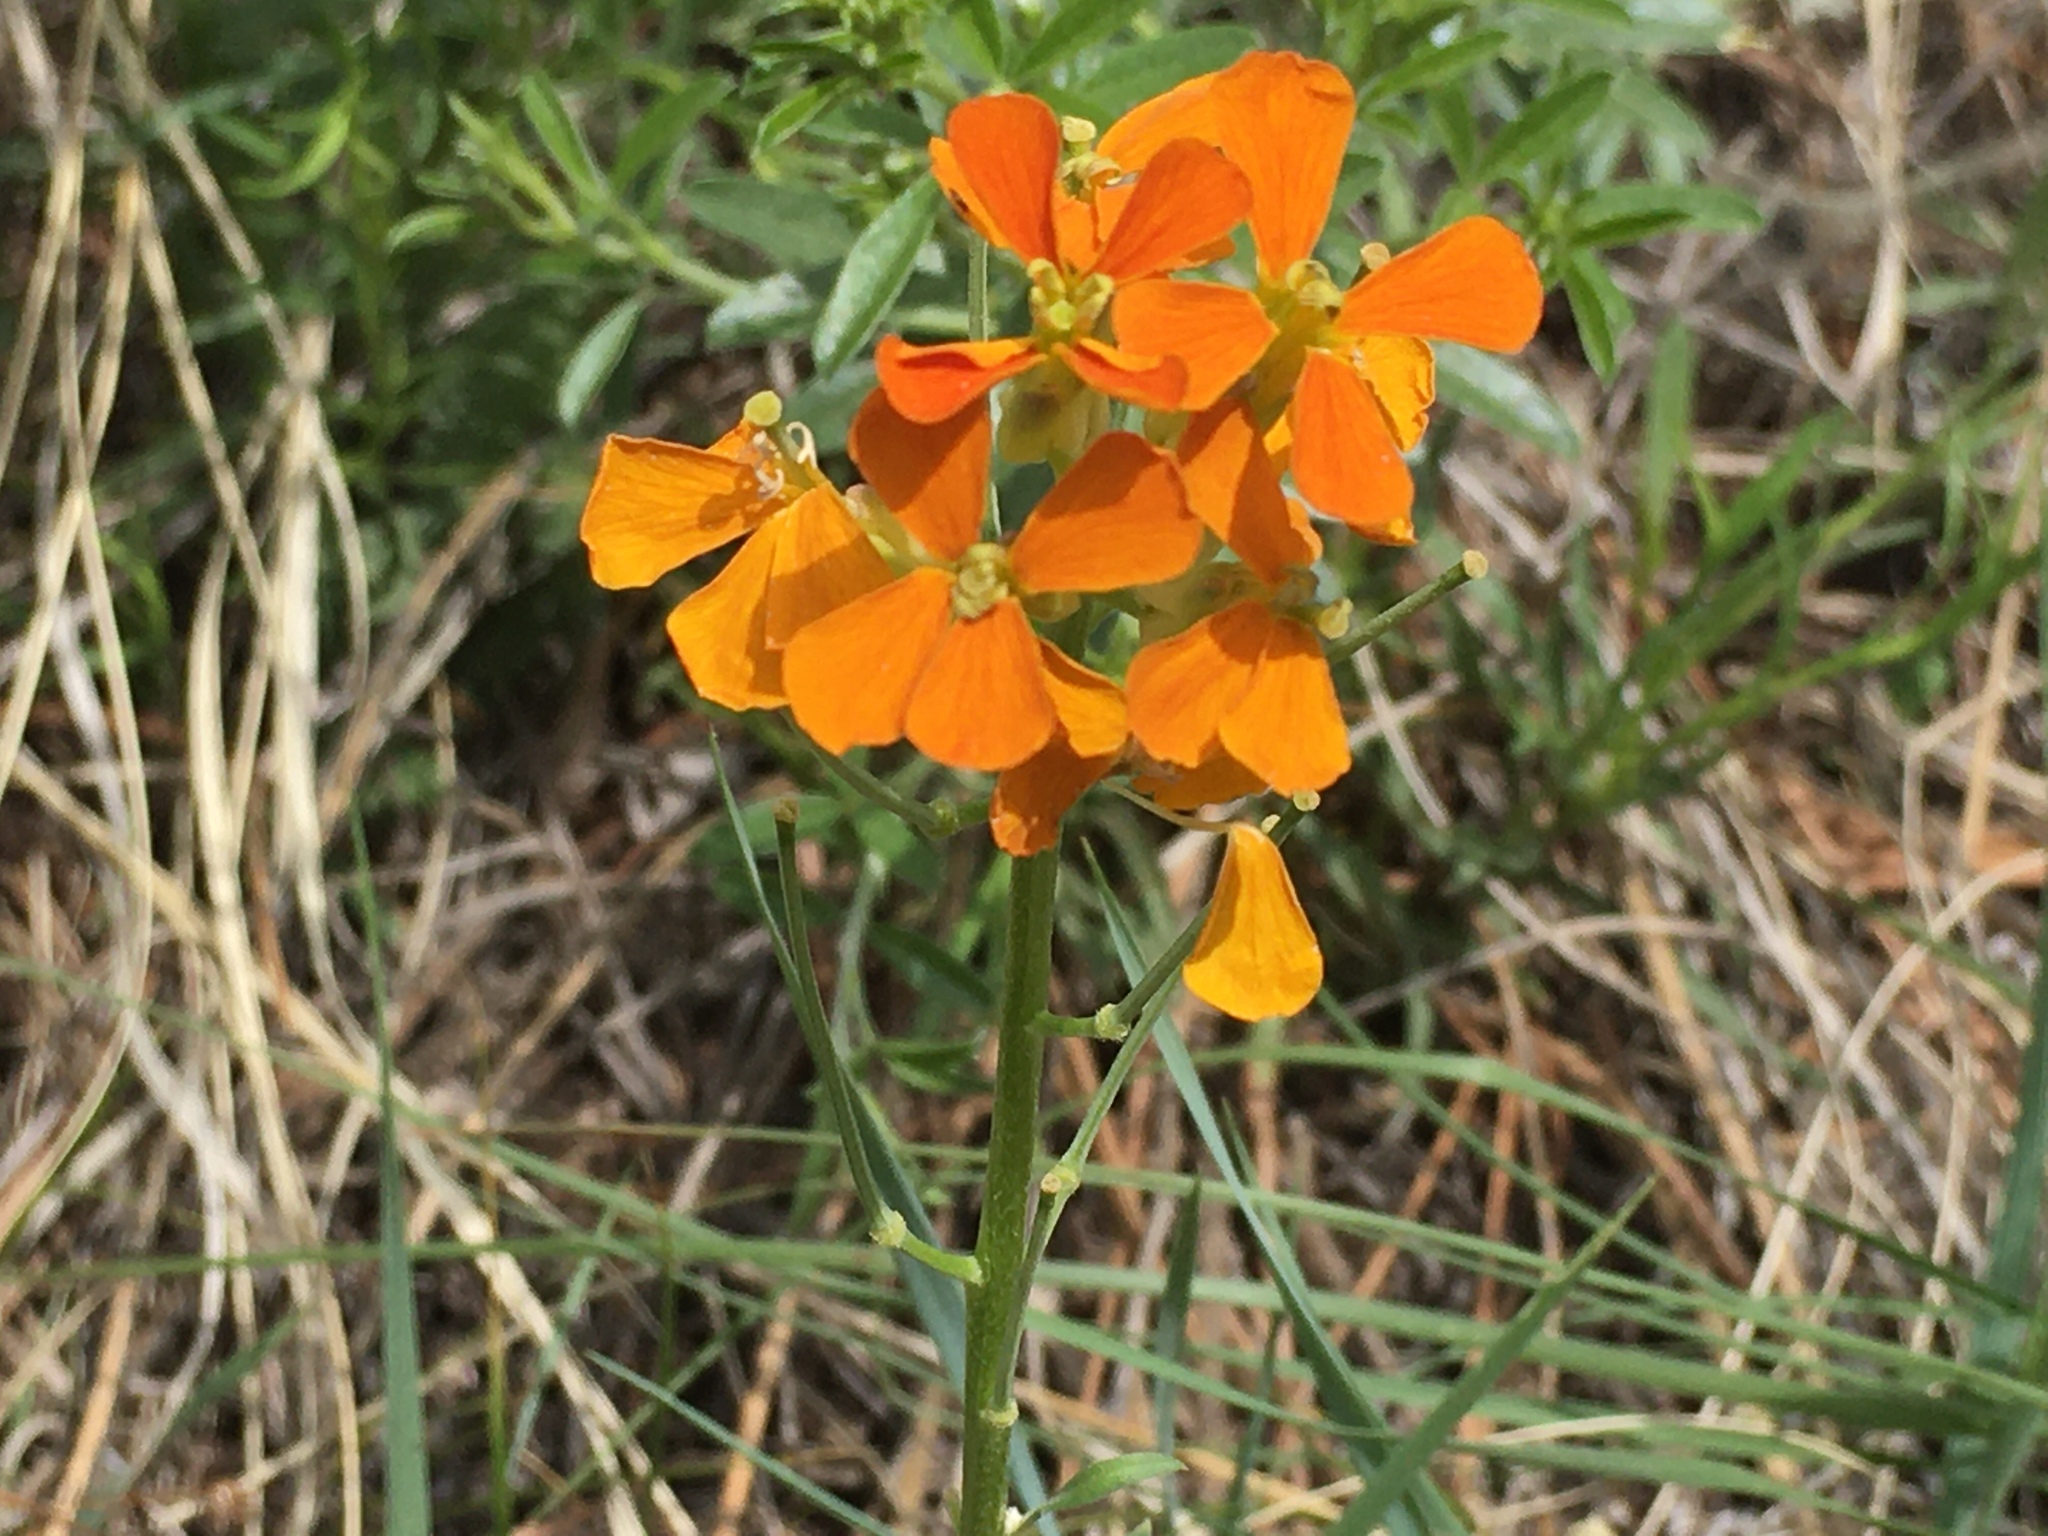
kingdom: Plantae
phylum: Tracheophyta
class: Magnoliopsida
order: Brassicales
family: Brassicaceae
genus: Erysimum
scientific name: Erysimum capitatum
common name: Western wallflower
